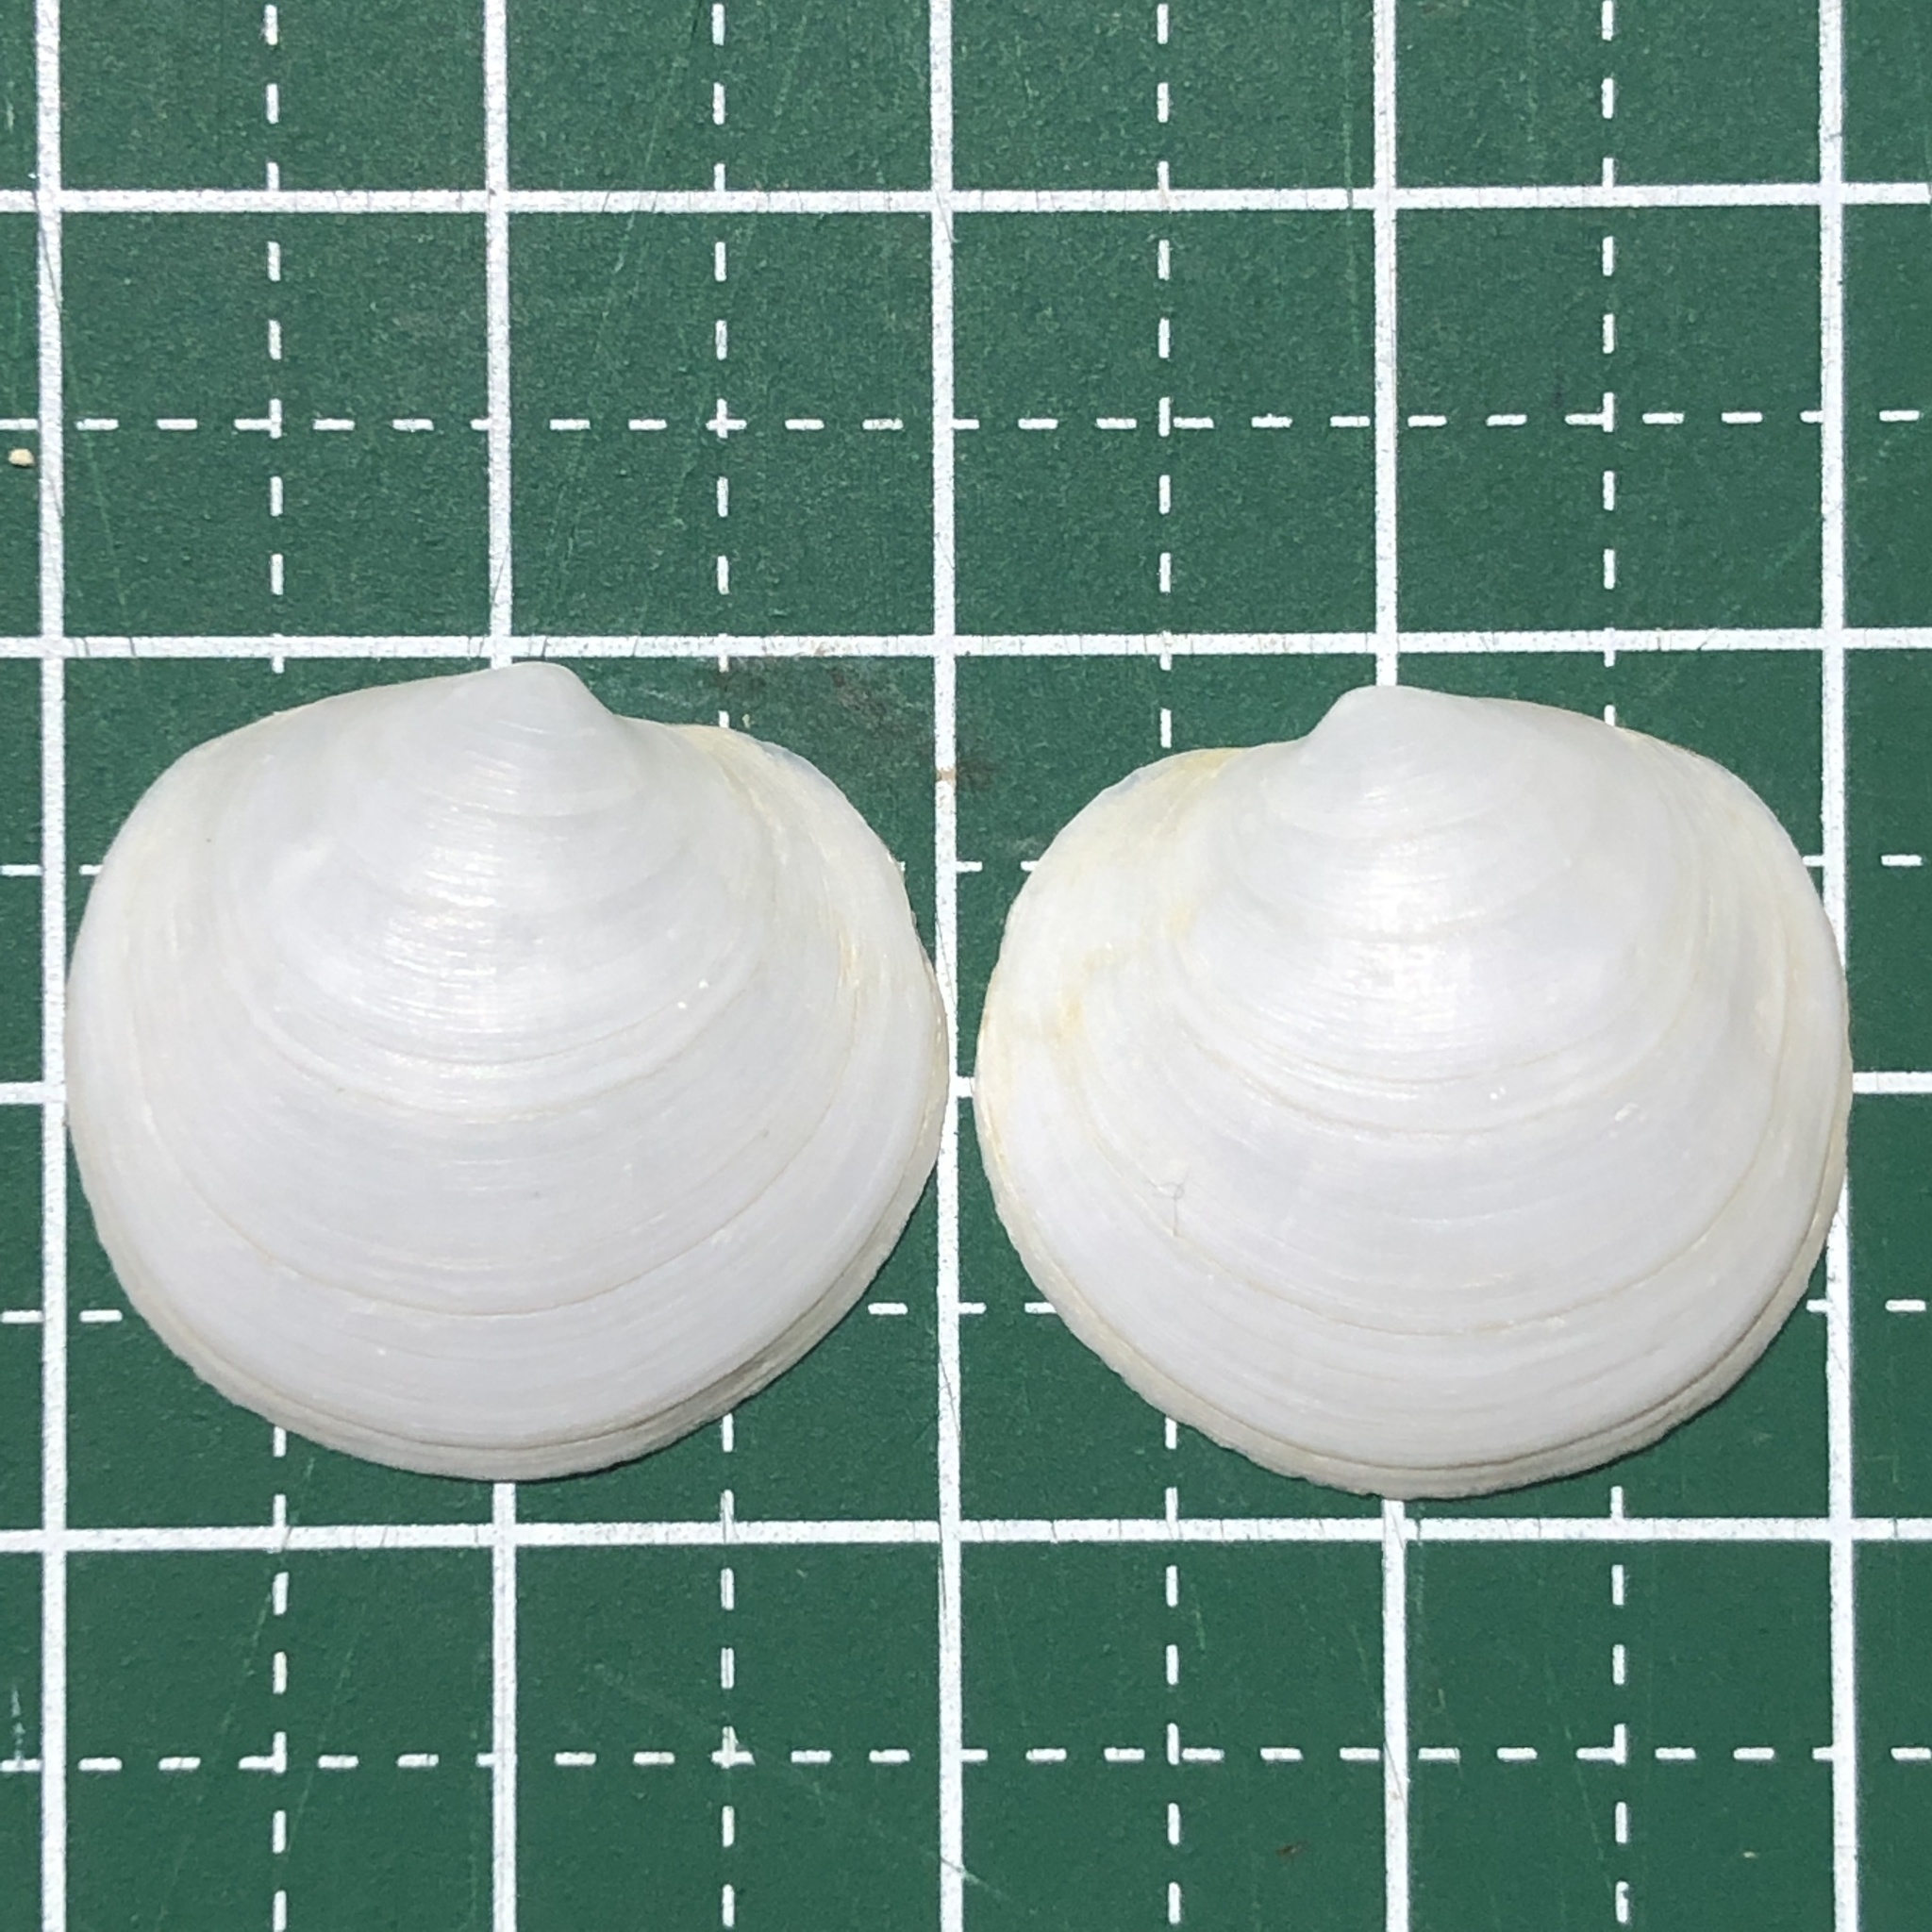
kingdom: Animalia
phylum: Mollusca
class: Bivalvia
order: Lucinida
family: Lucinidae
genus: Anodontia
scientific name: Anodontia edentula
